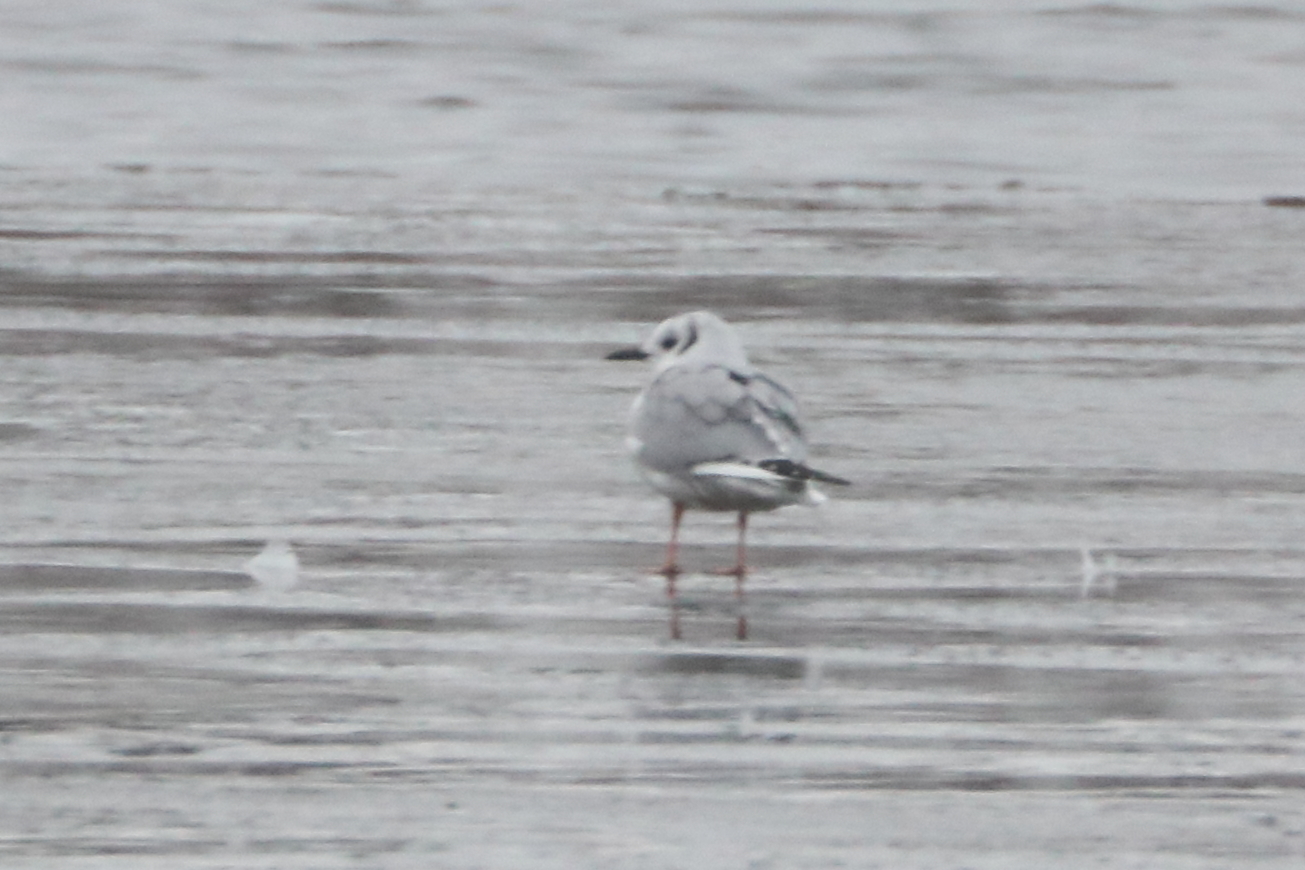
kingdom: Animalia
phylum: Chordata
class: Aves
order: Charadriiformes
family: Laridae
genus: Chroicocephalus
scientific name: Chroicocephalus philadelphia
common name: Bonaparte's gull
